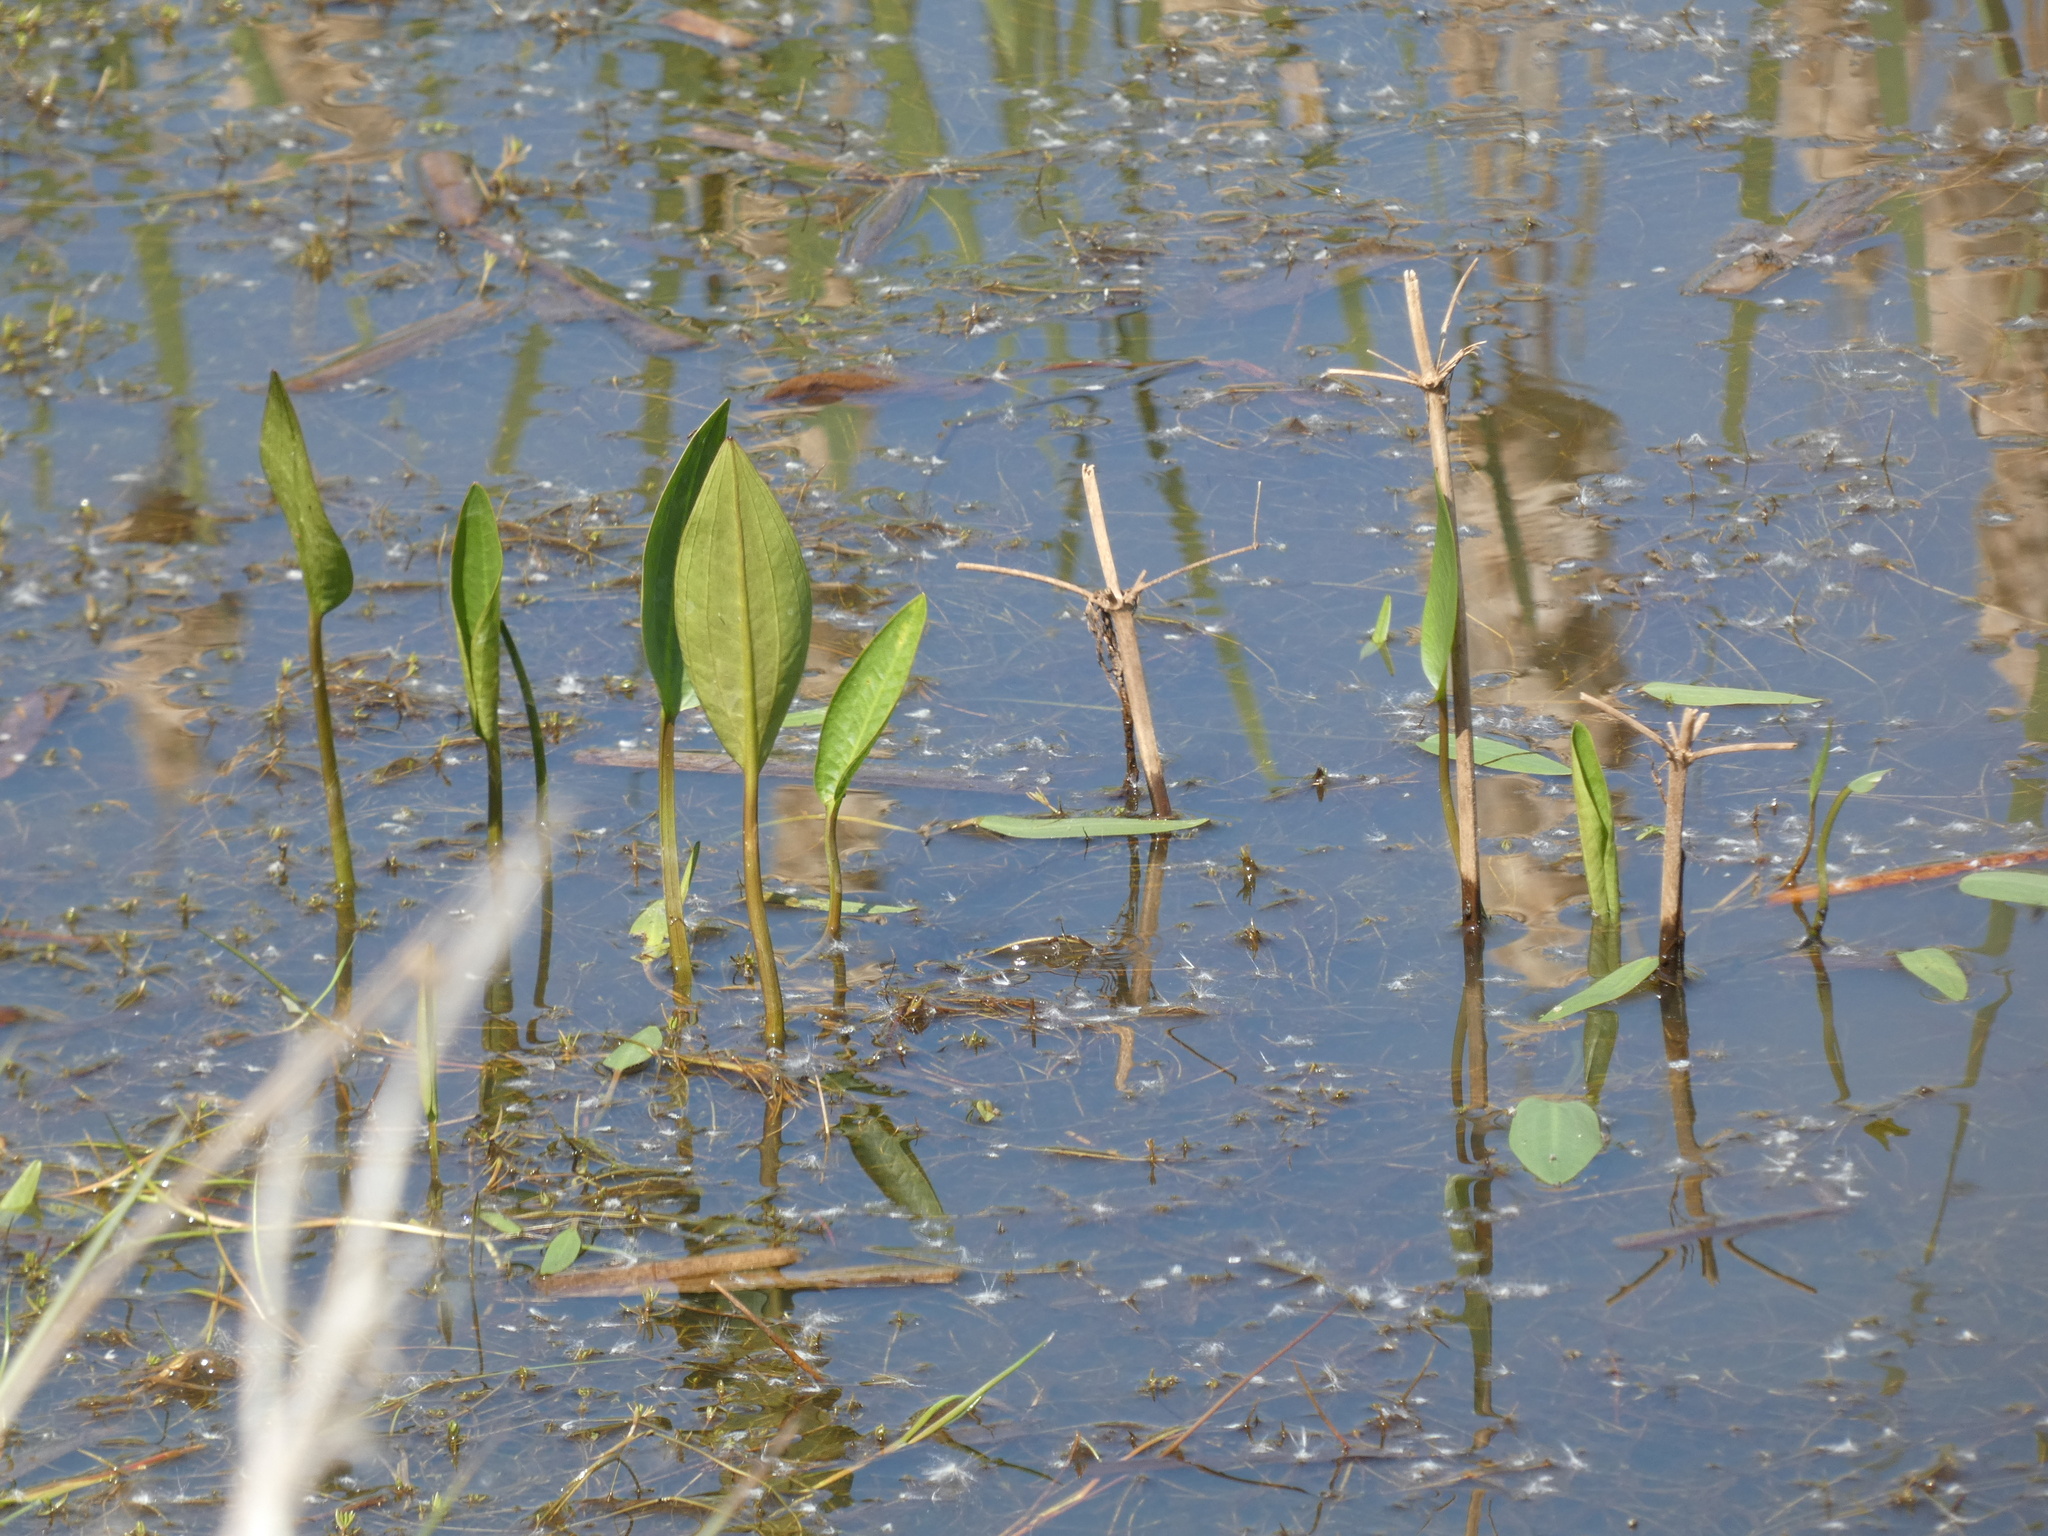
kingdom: Plantae
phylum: Tracheophyta
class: Liliopsida
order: Alismatales
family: Alismataceae
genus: Alisma
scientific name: Alisma plantago-aquatica
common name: Water-plantain
